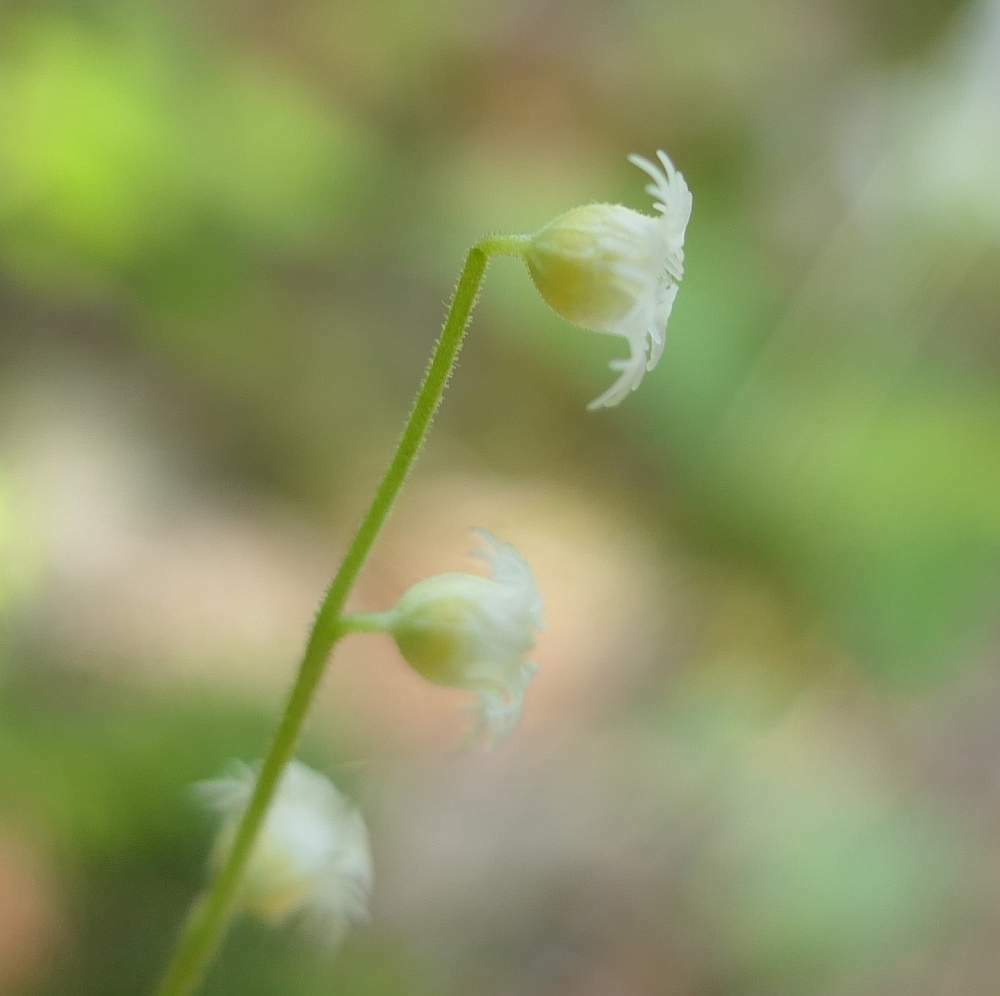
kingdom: Plantae
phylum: Tracheophyta
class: Magnoliopsida
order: Saxifragales
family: Saxifragaceae
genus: Mitella
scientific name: Mitella diphylla
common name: Coolwort
